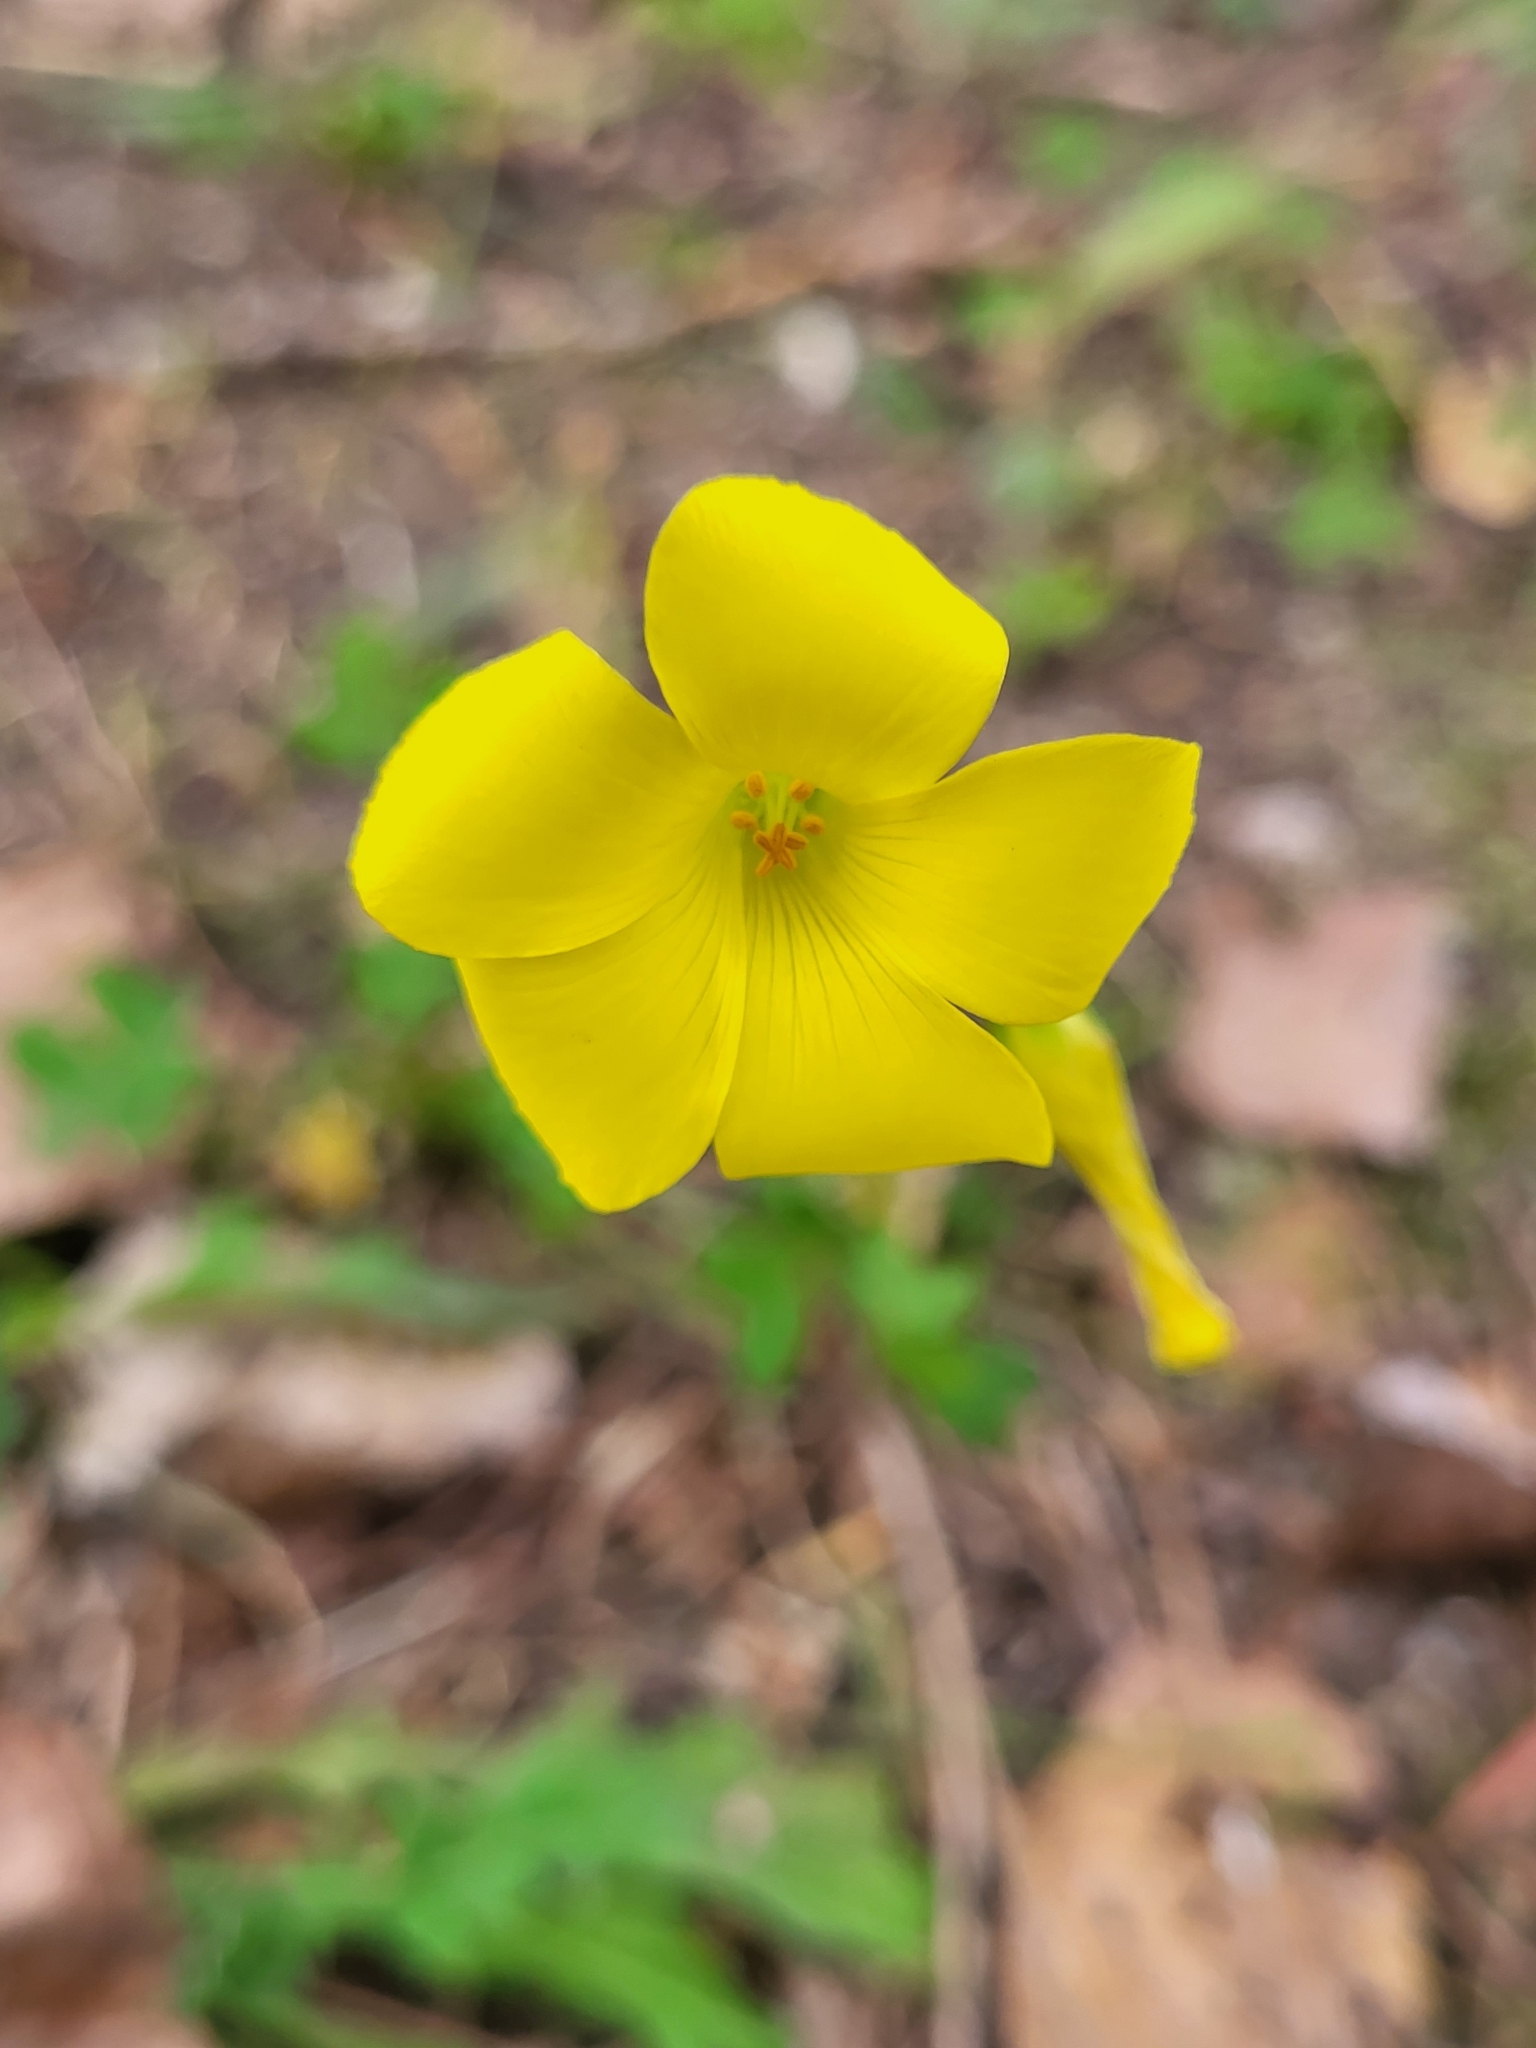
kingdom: Plantae
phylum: Tracheophyta
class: Magnoliopsida
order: Oxalidales
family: Oxalidaceae
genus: Oxalis
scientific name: Oxalis pes-caprae
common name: Bermuda-buttercup
